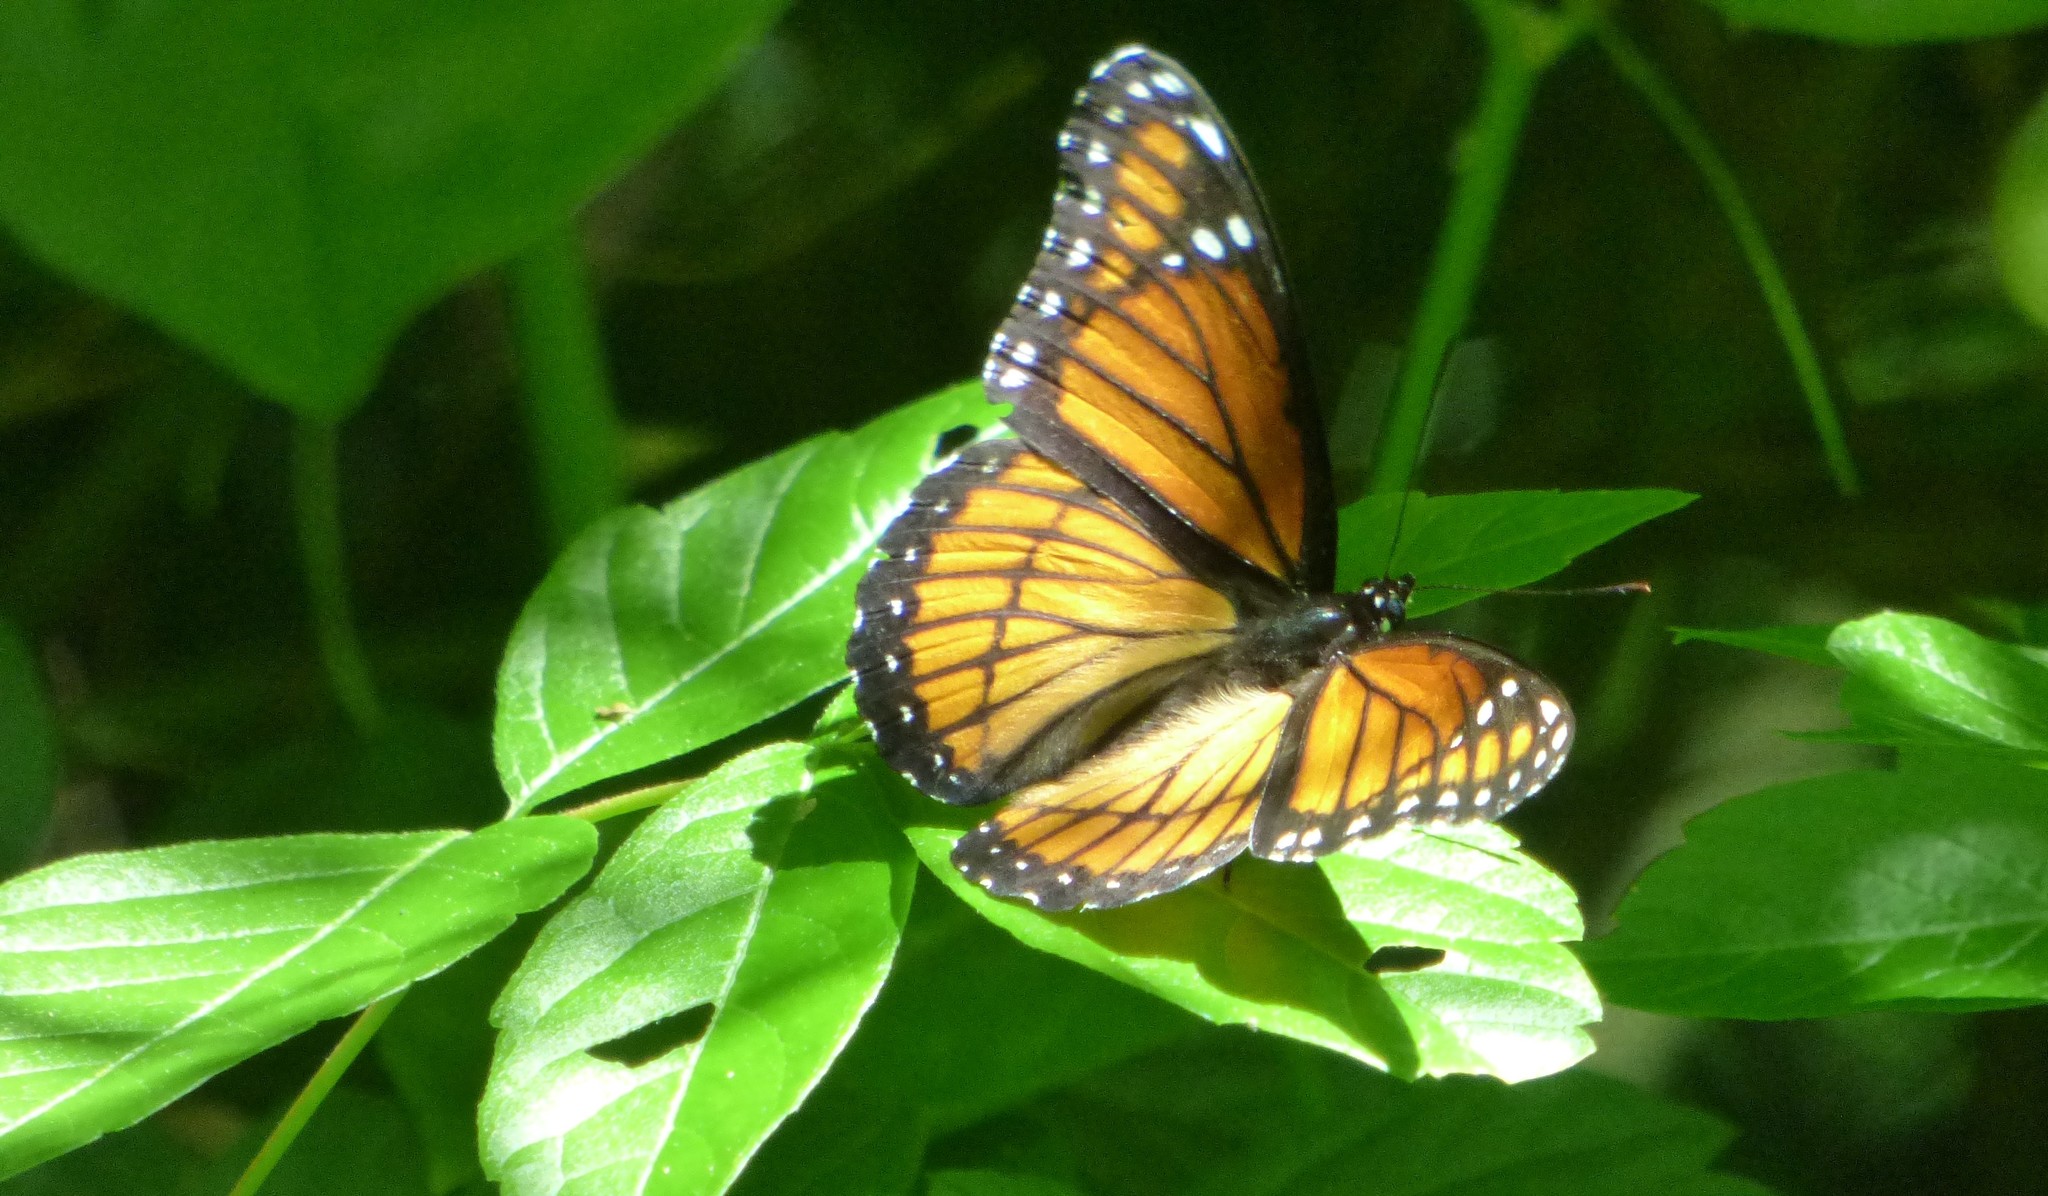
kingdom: Animalia
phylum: Arthropoda
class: Insecta
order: Lepidoptera
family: Nymphalidae
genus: Limenitis
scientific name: Limenitis archippus
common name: Viceroy
